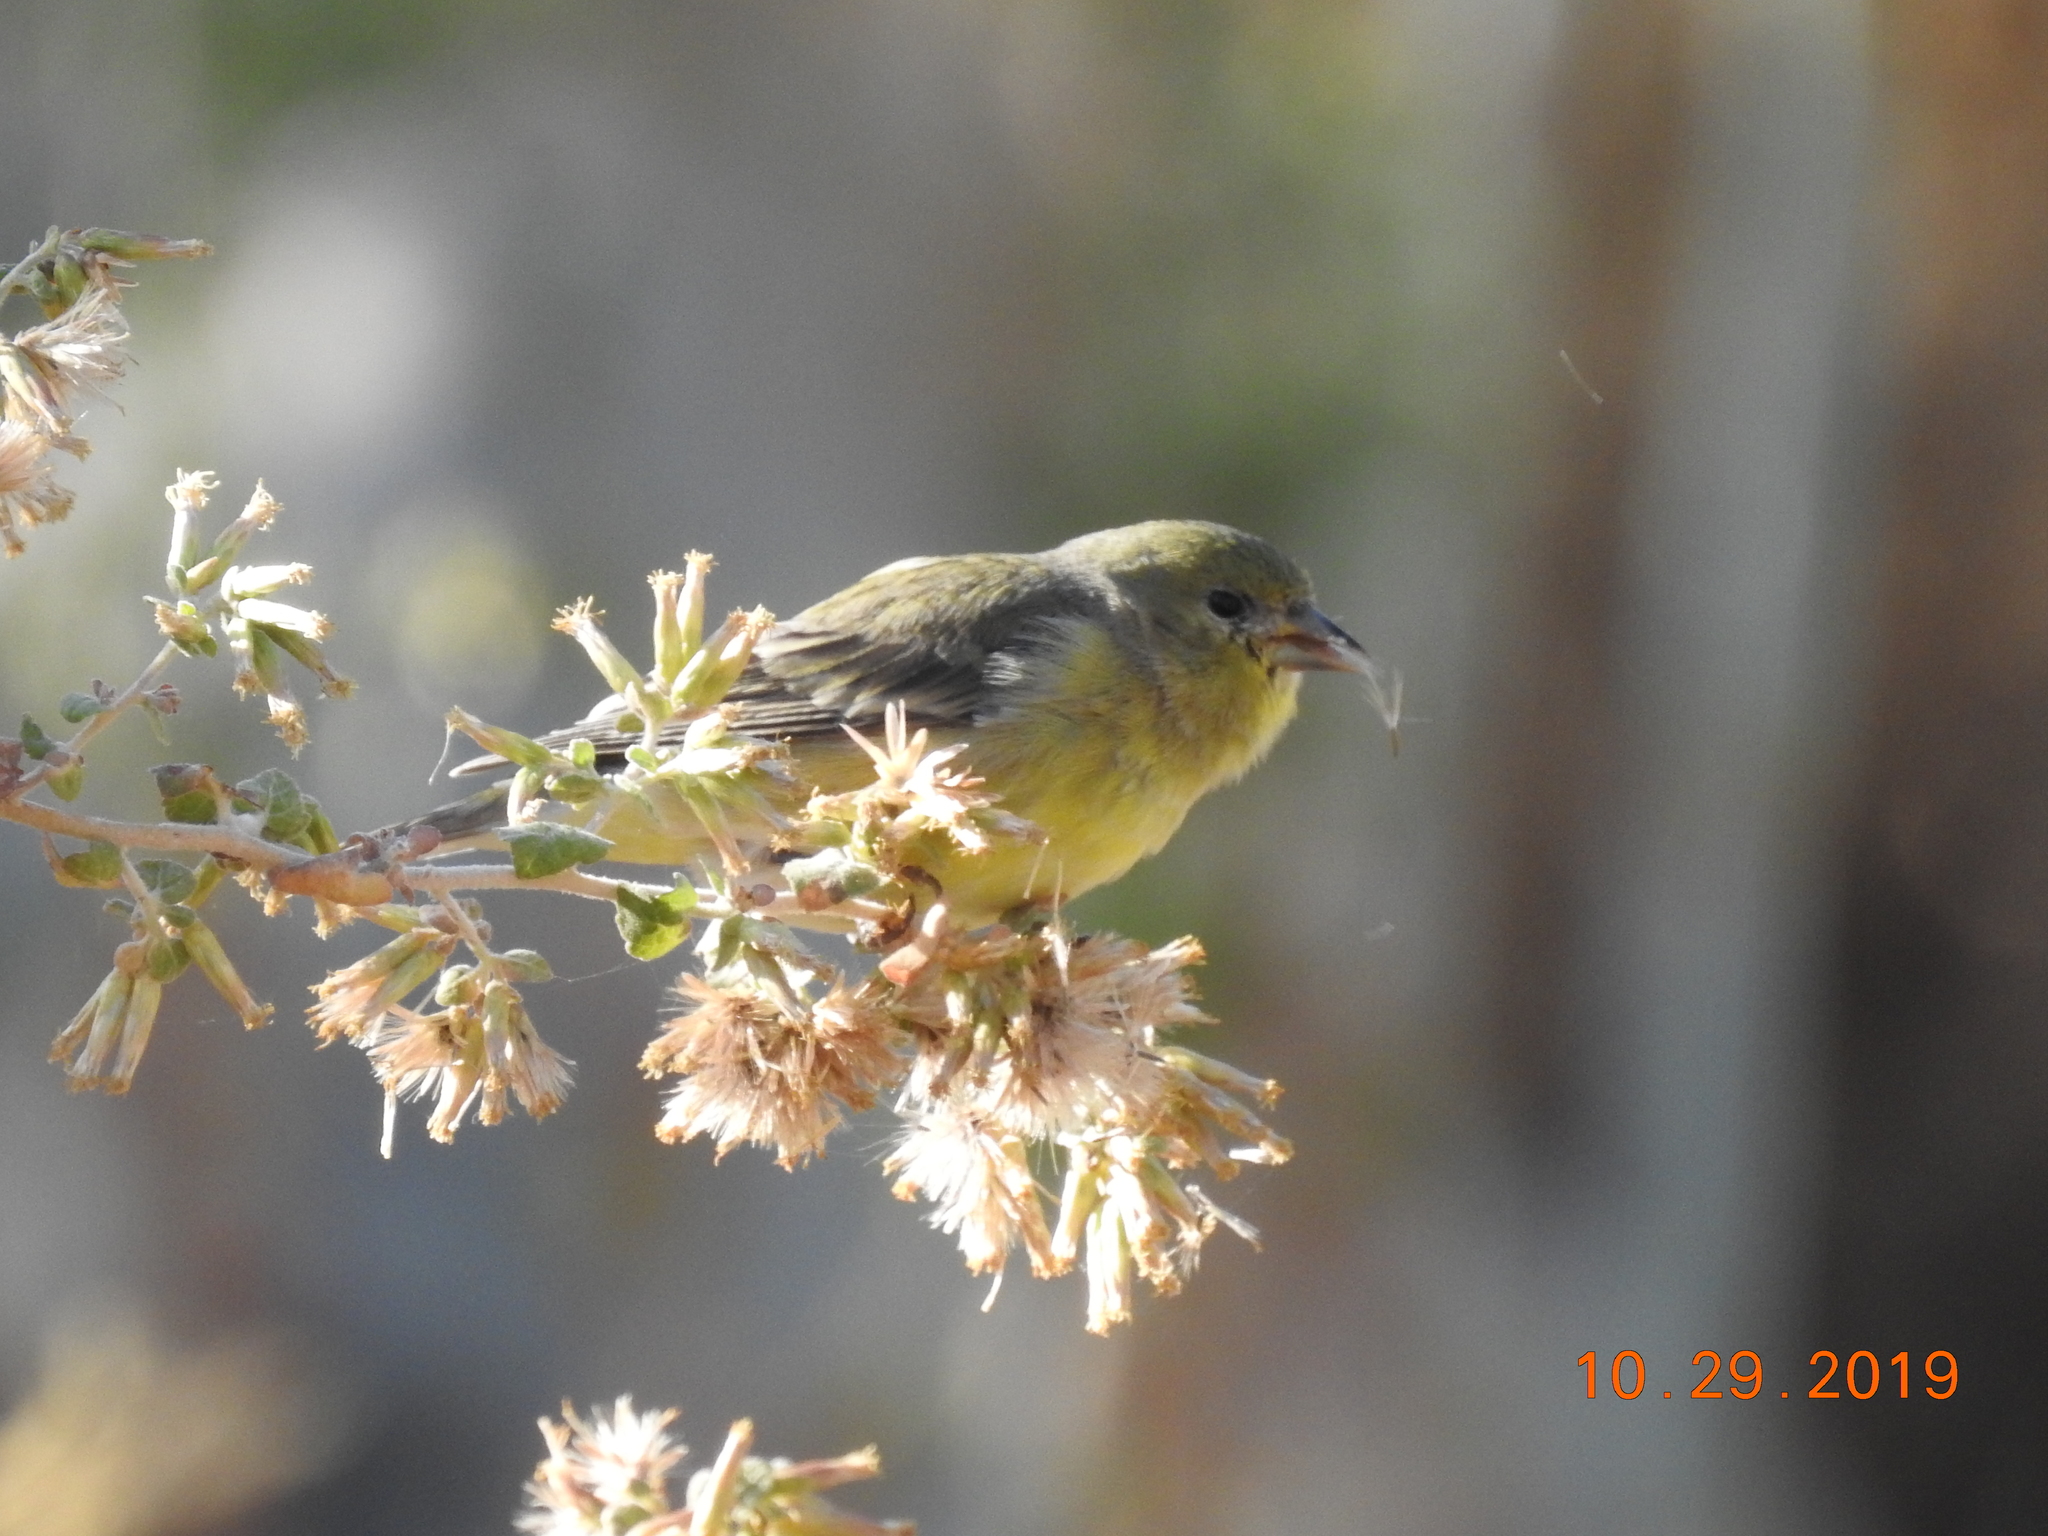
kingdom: Animalia
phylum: Chordata
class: Aves
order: Passeriformes
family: Fringillidae
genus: Spinus
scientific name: Spinus psaltria
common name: Lesser goldfinch
